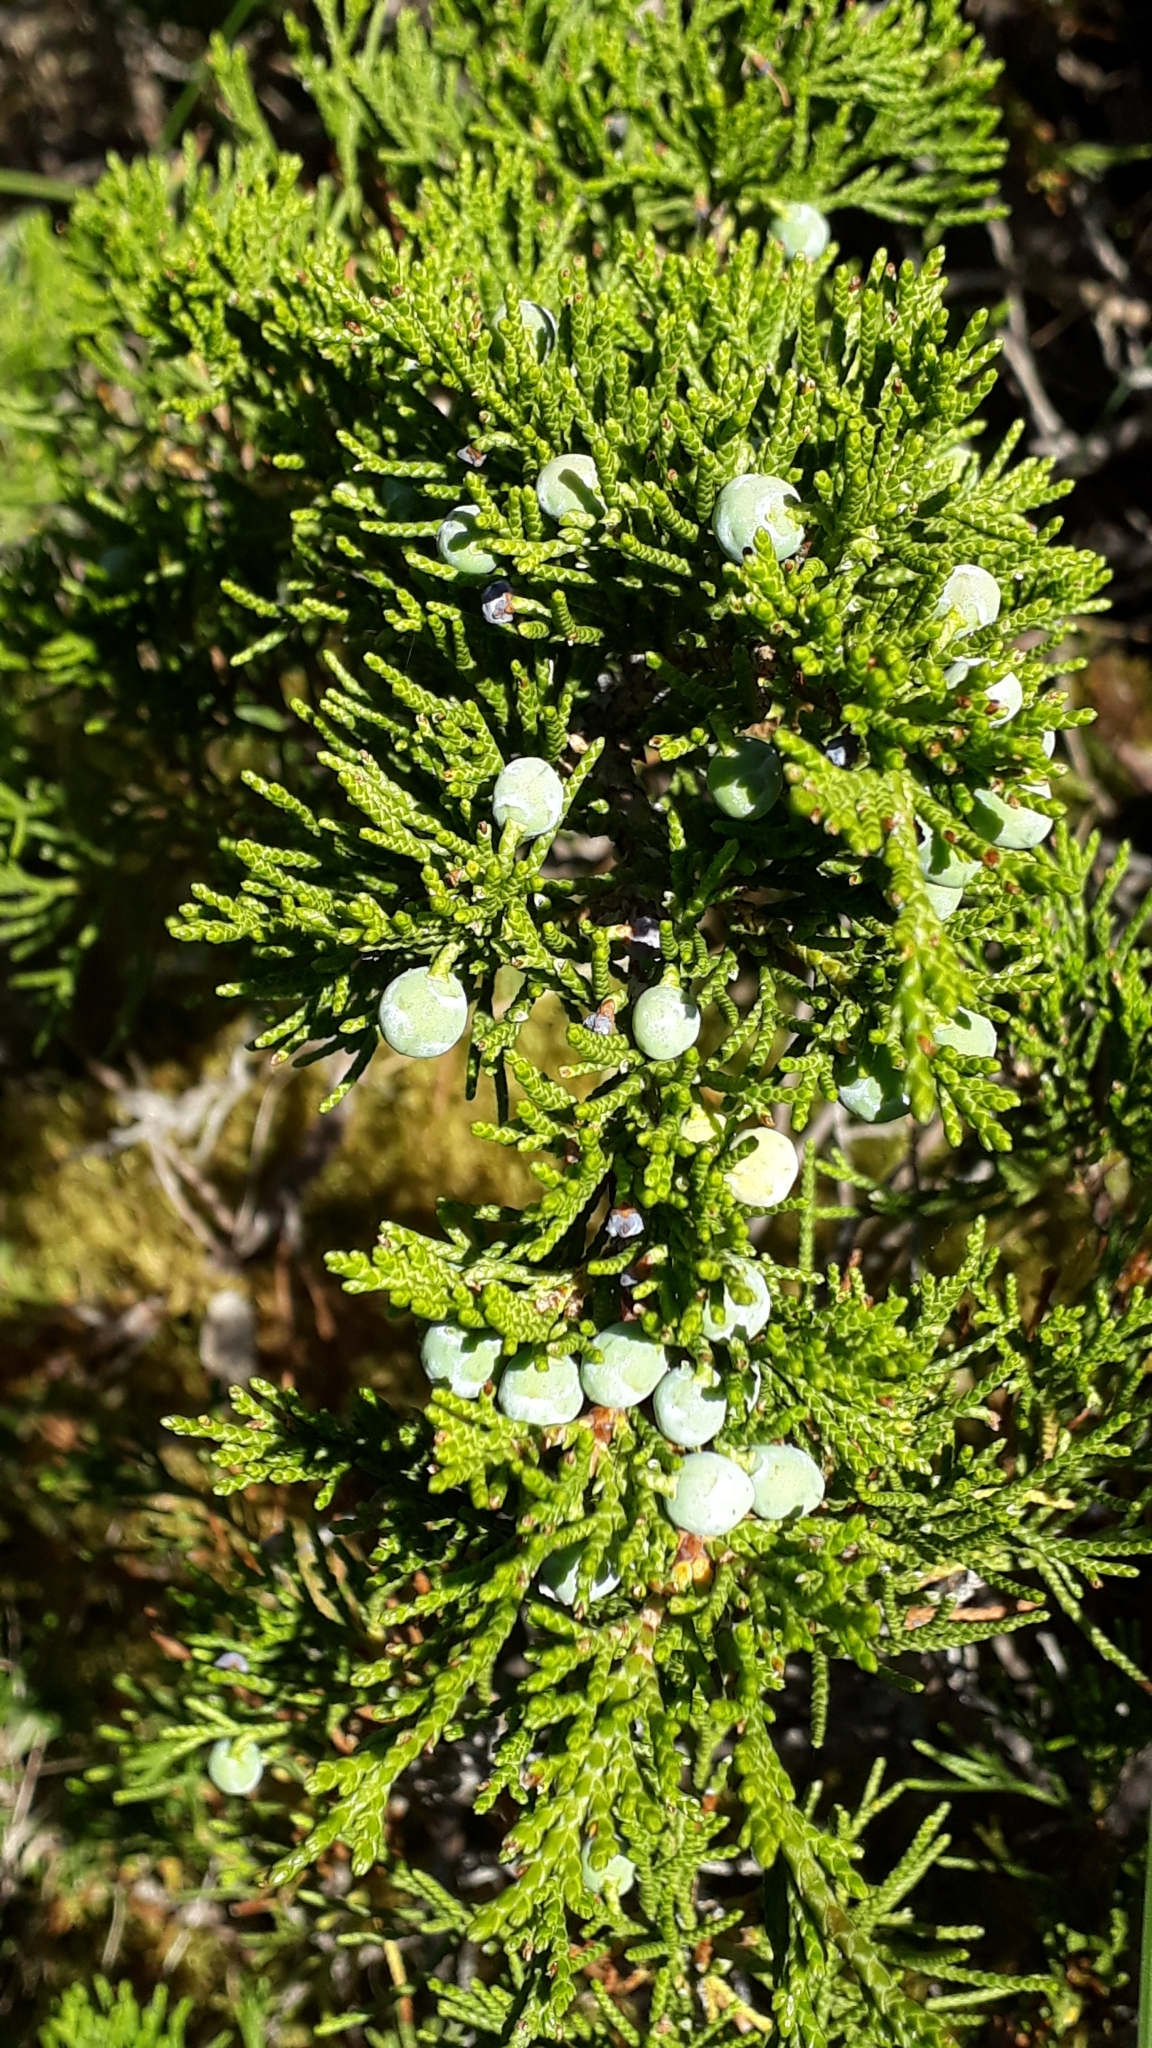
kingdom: Plantae
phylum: Tracheophyta
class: Pinopsida
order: Pinales
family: Cupressaceae
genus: Juniperus
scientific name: Juniperus sabina
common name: Savin
